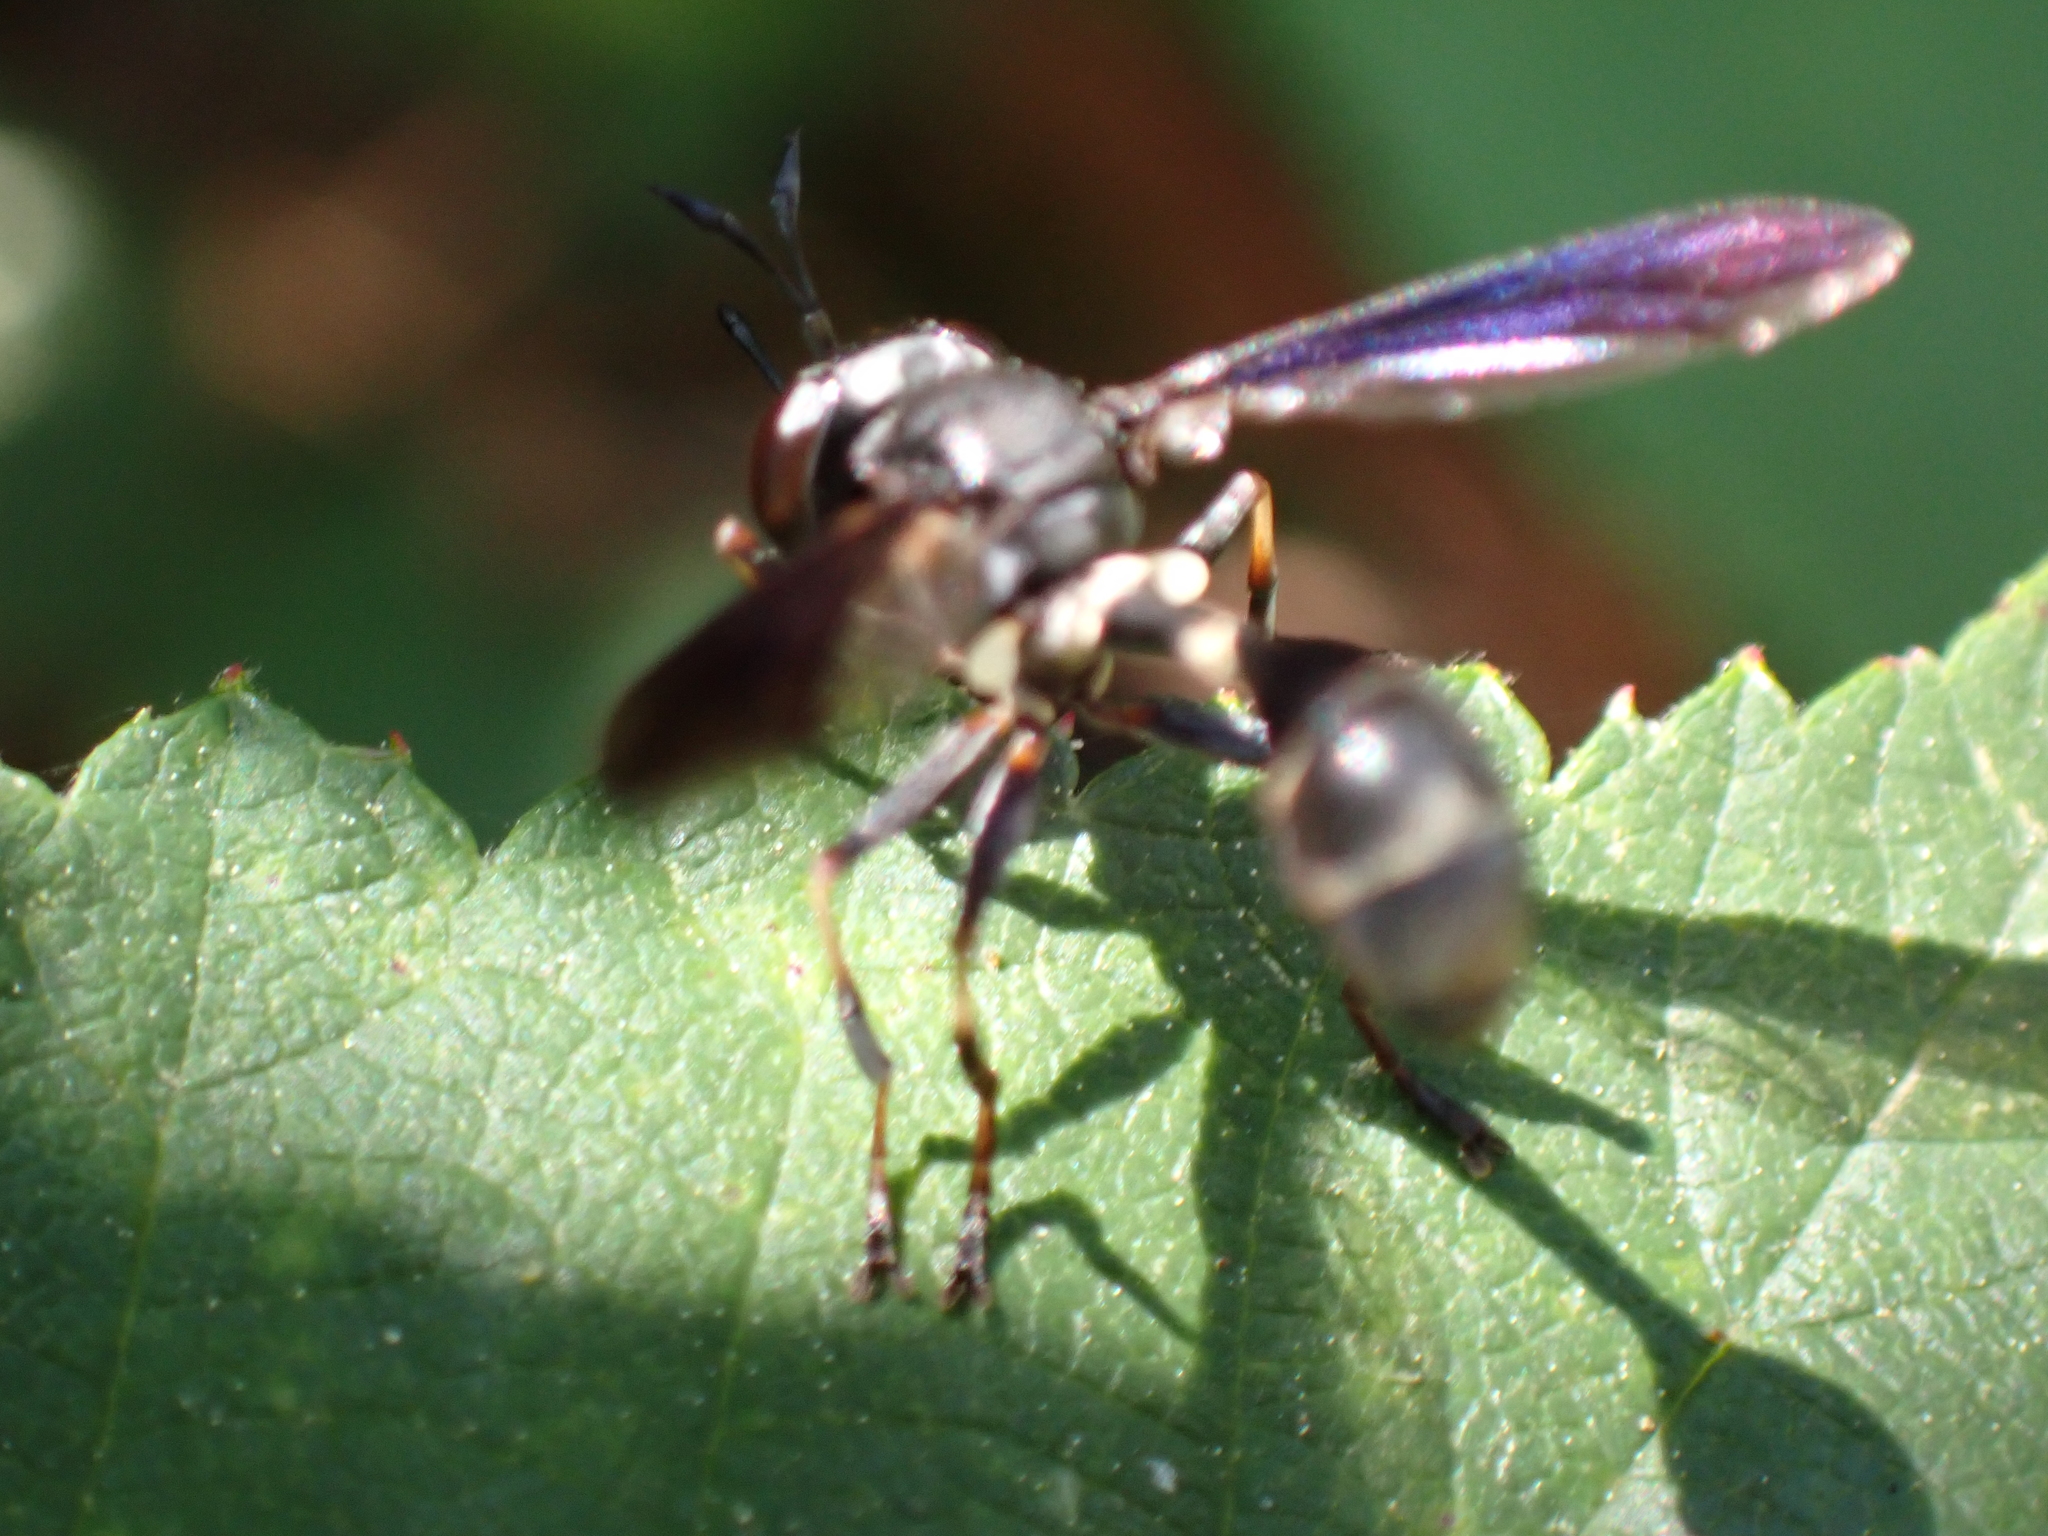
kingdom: Animalia
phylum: Arthropoda
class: Insecta
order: Diptera
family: Conopidae
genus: Physocephala
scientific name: Physocephala tibialis
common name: Common eastern physocephala
